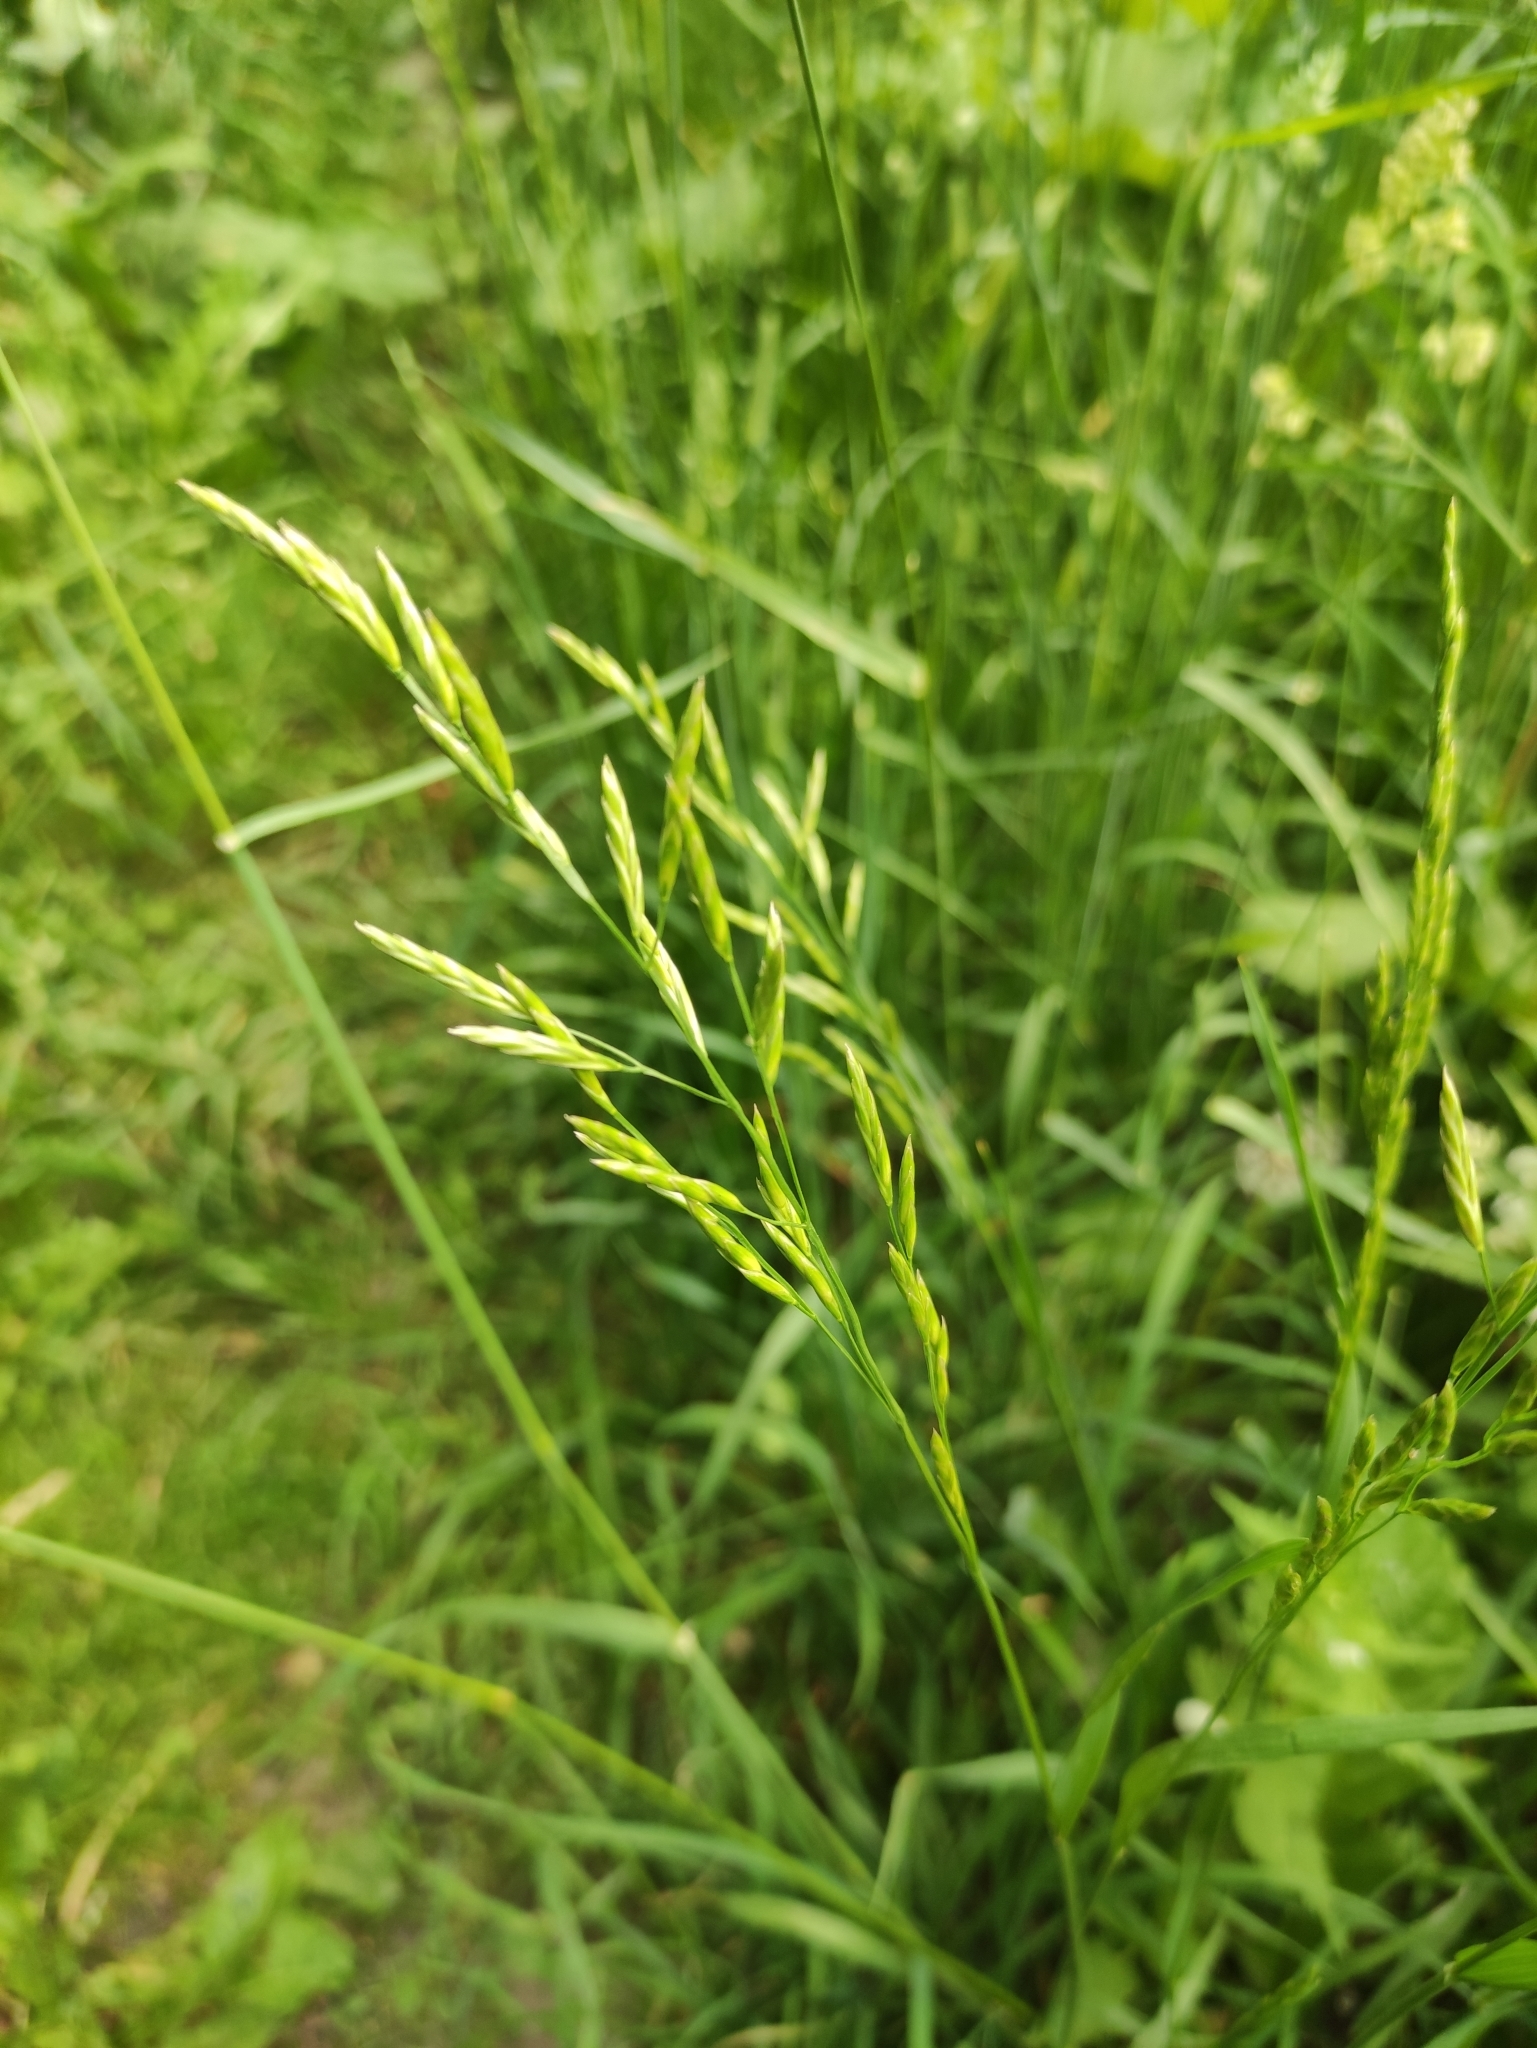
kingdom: Plantae
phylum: Tracheophyta
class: Liliopsida
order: Poales
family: Poaceae
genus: Lolium
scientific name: Lolium pratense
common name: Dover grass
